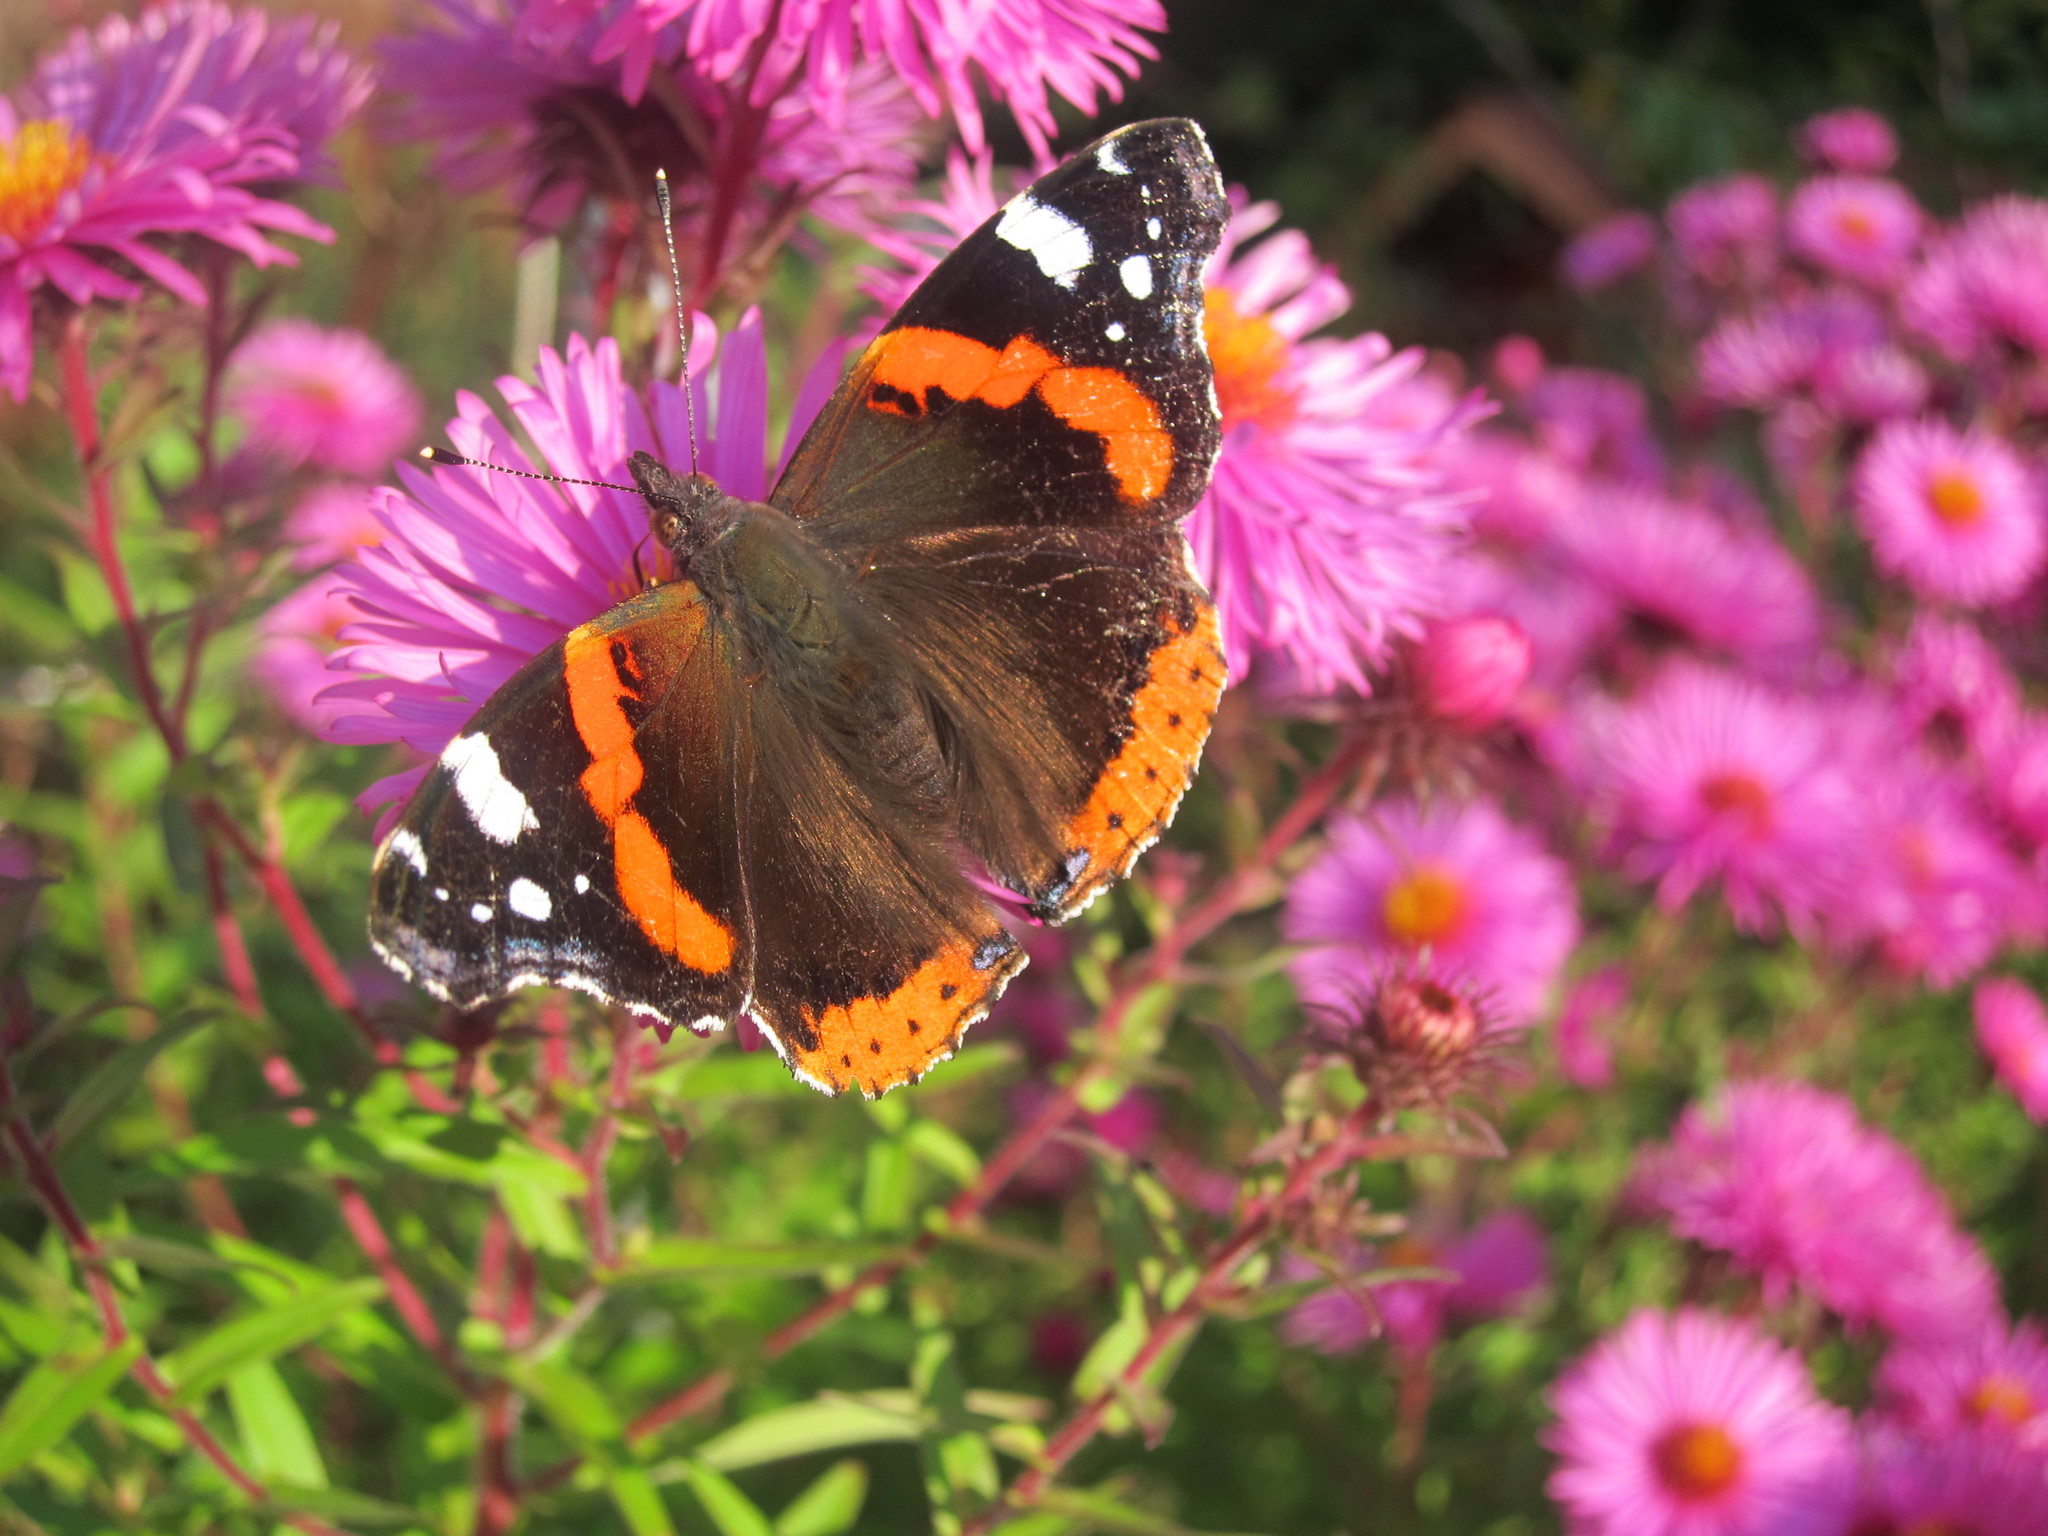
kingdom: Animalia
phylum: Arthropoda
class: Insecta
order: Lepidoptera
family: Nymphalidae
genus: Vanessa
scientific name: Vanessa atalanta
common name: Red admiral
